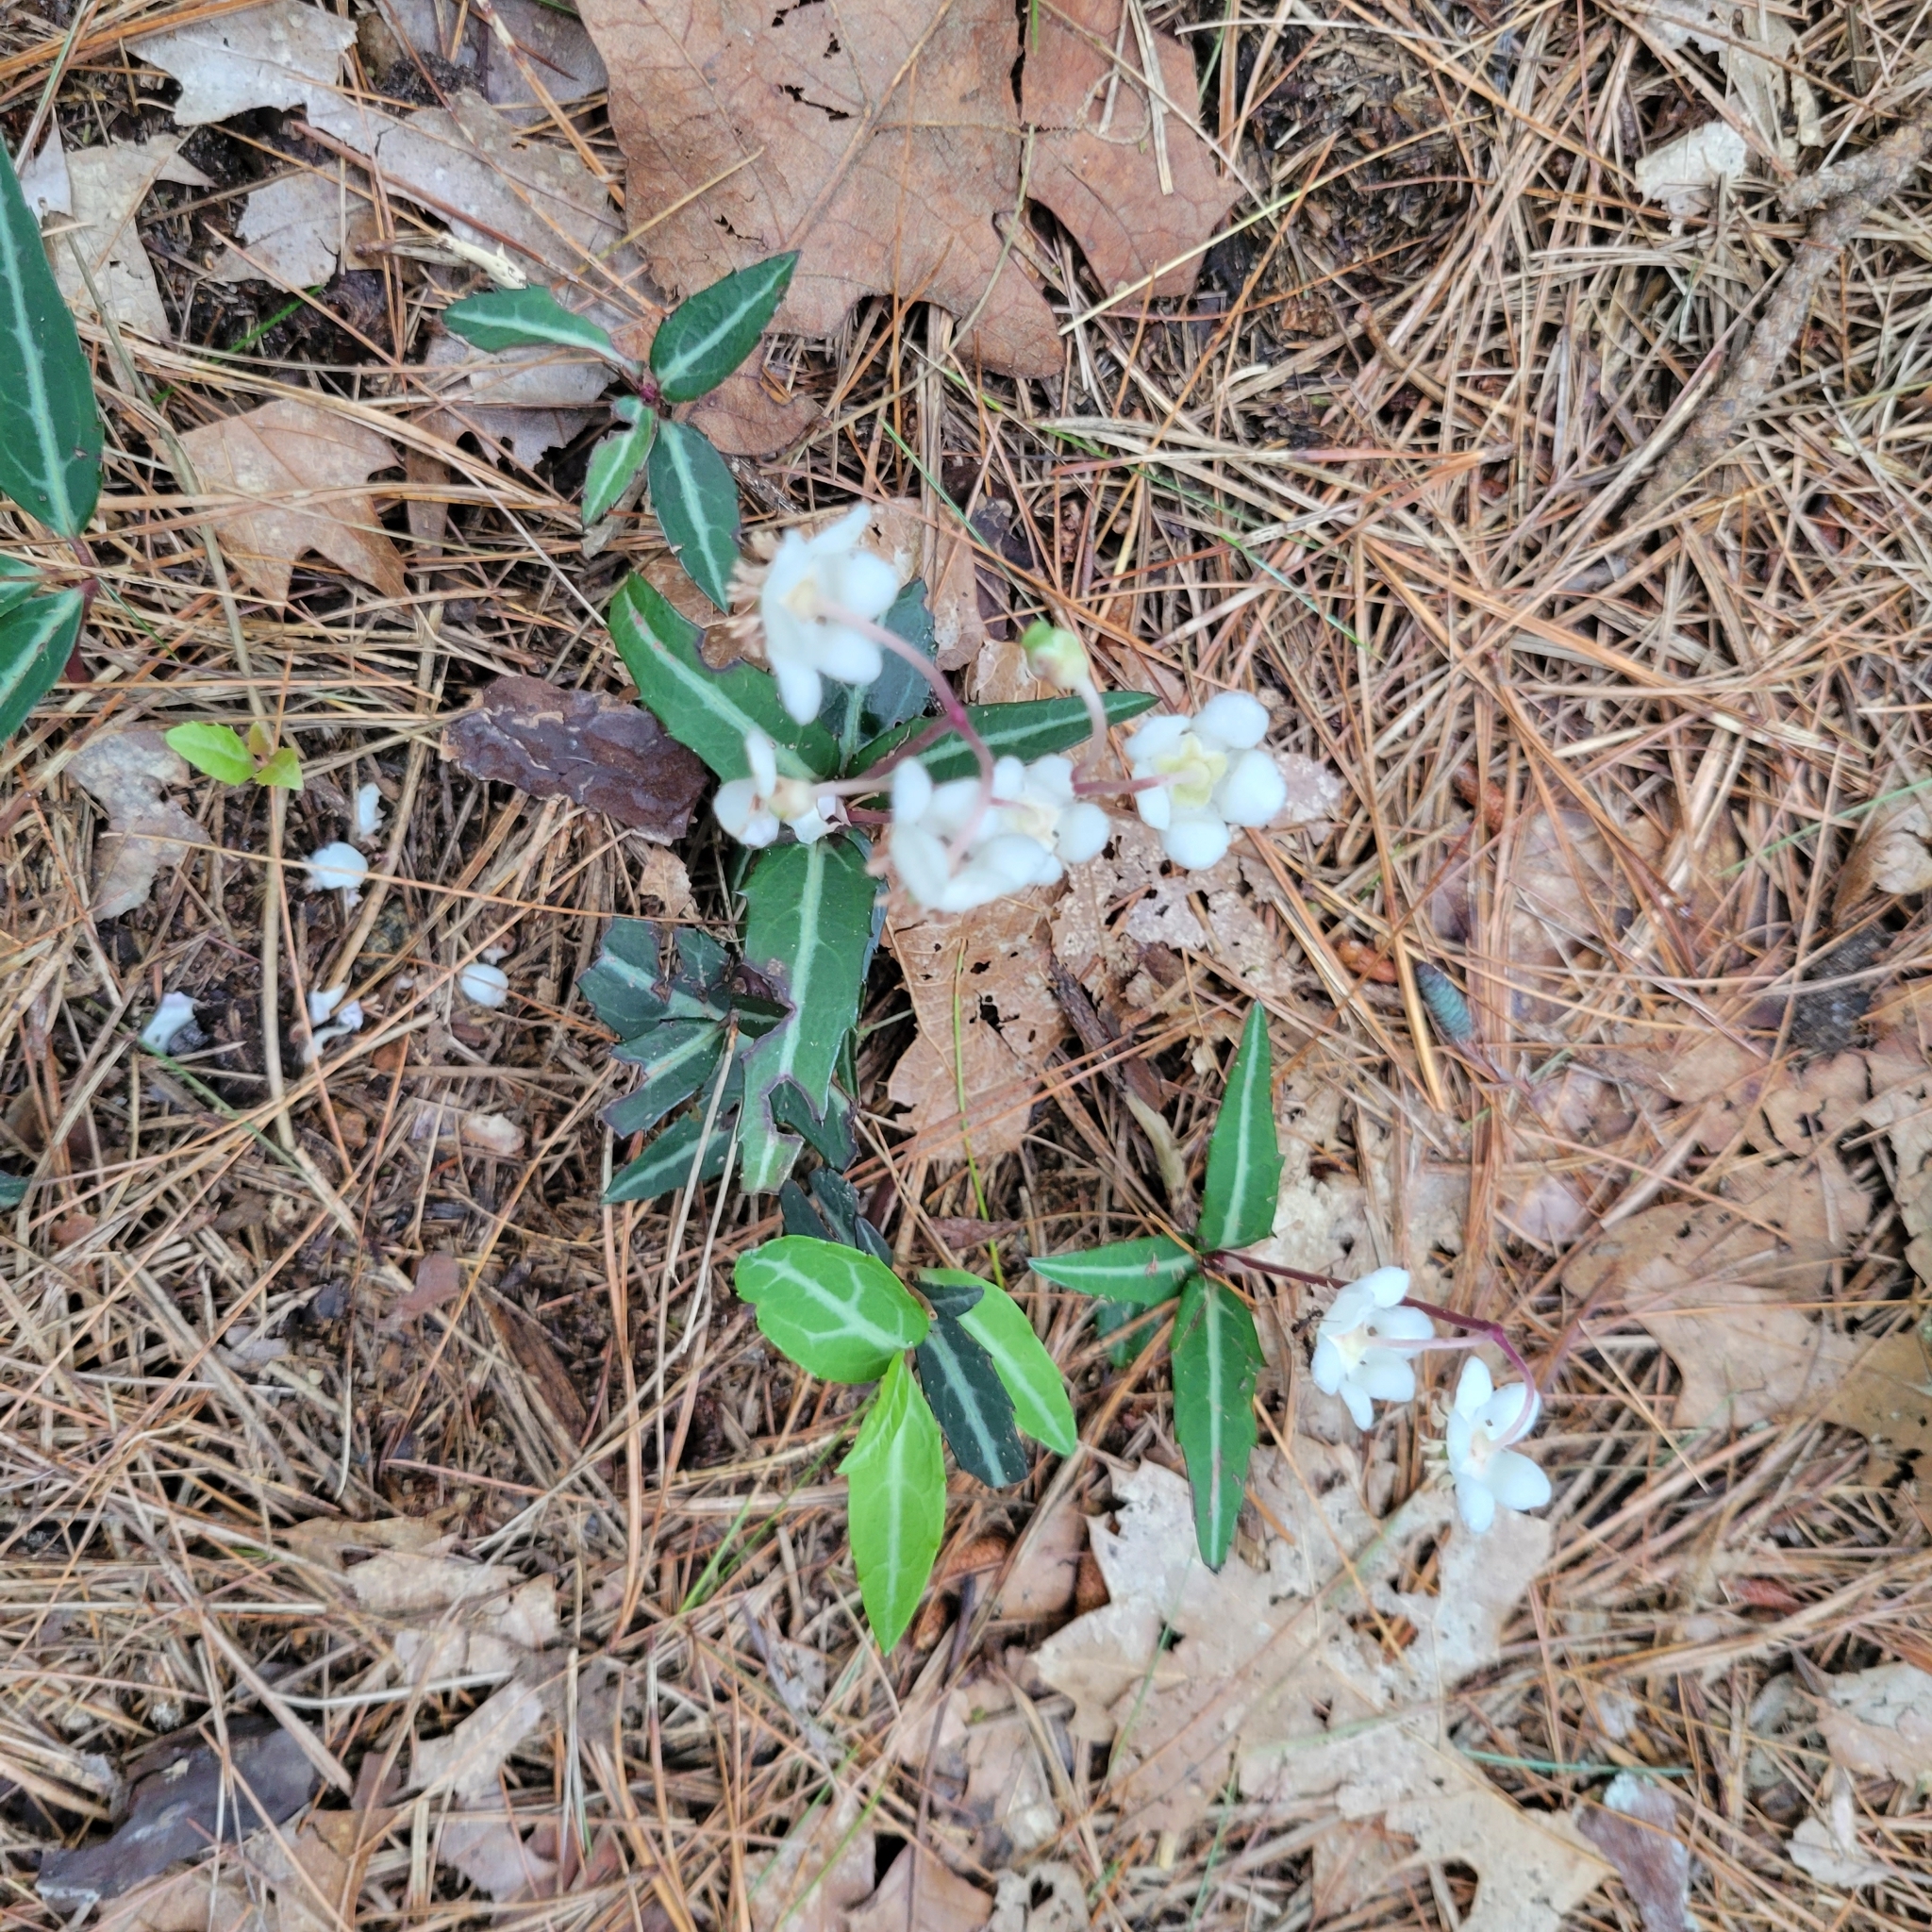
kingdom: Plantae
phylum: Tracheophyta
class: Magnoliopsida
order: Ericales
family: Ericaceae
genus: Chimaphila
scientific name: Chimaphila maculata
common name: Spotted pipsissewa
